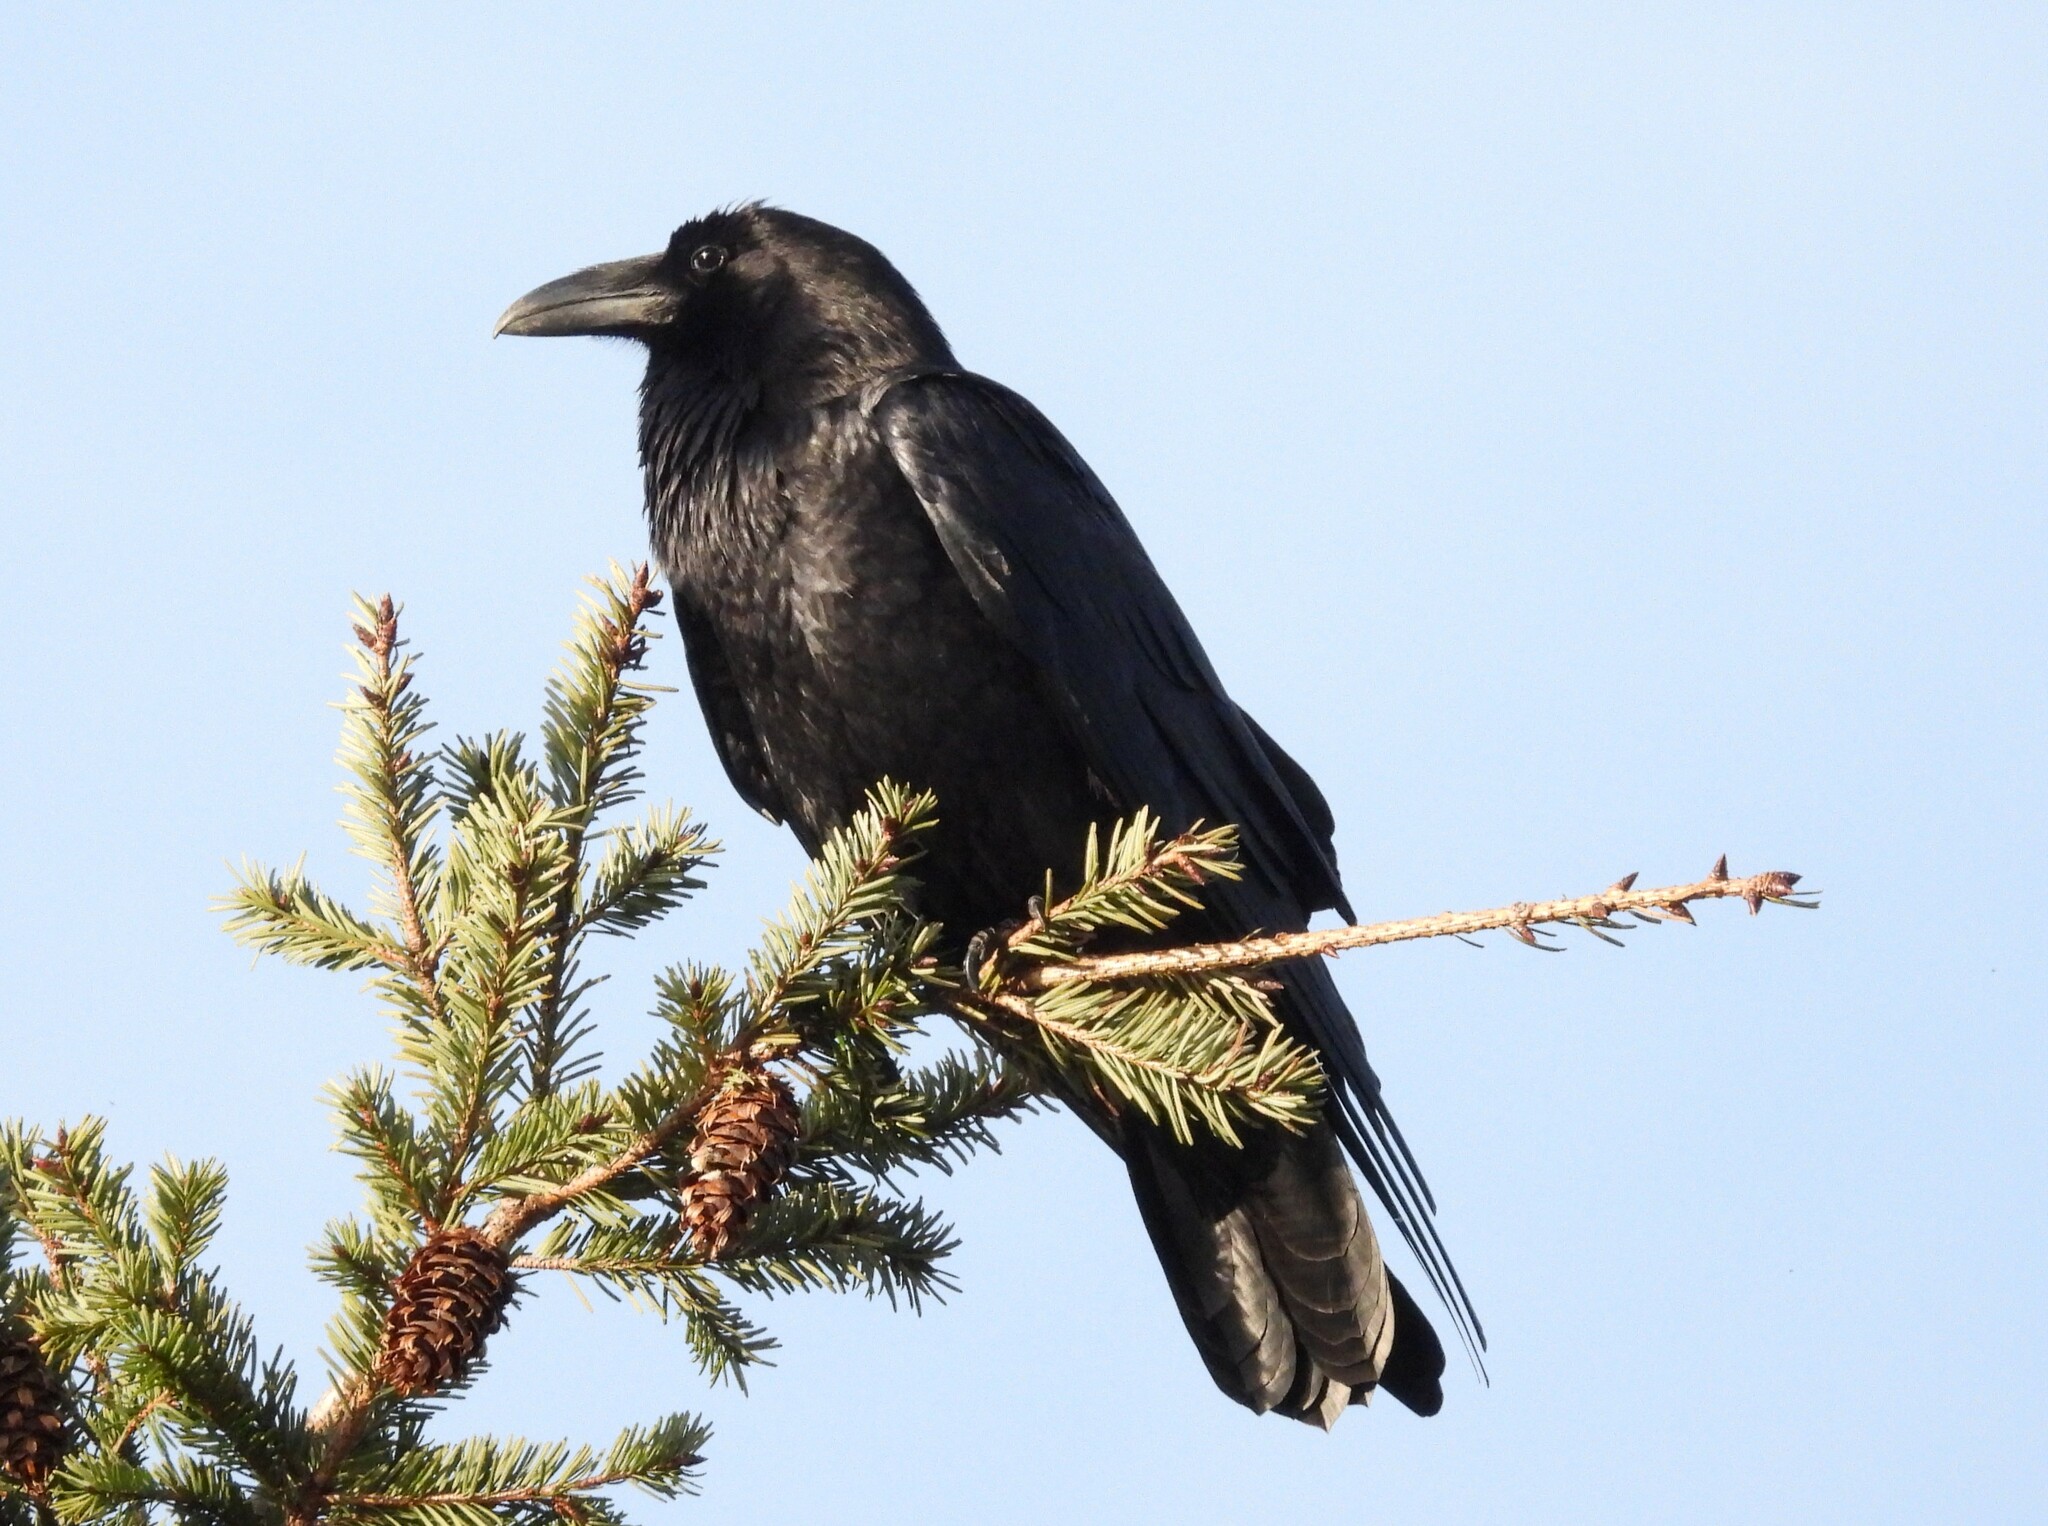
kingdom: Animalia
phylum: Chordata
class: Aves
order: Passeriformes
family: Corvidae
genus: Corvus
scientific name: Corvus corax
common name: Common raven
